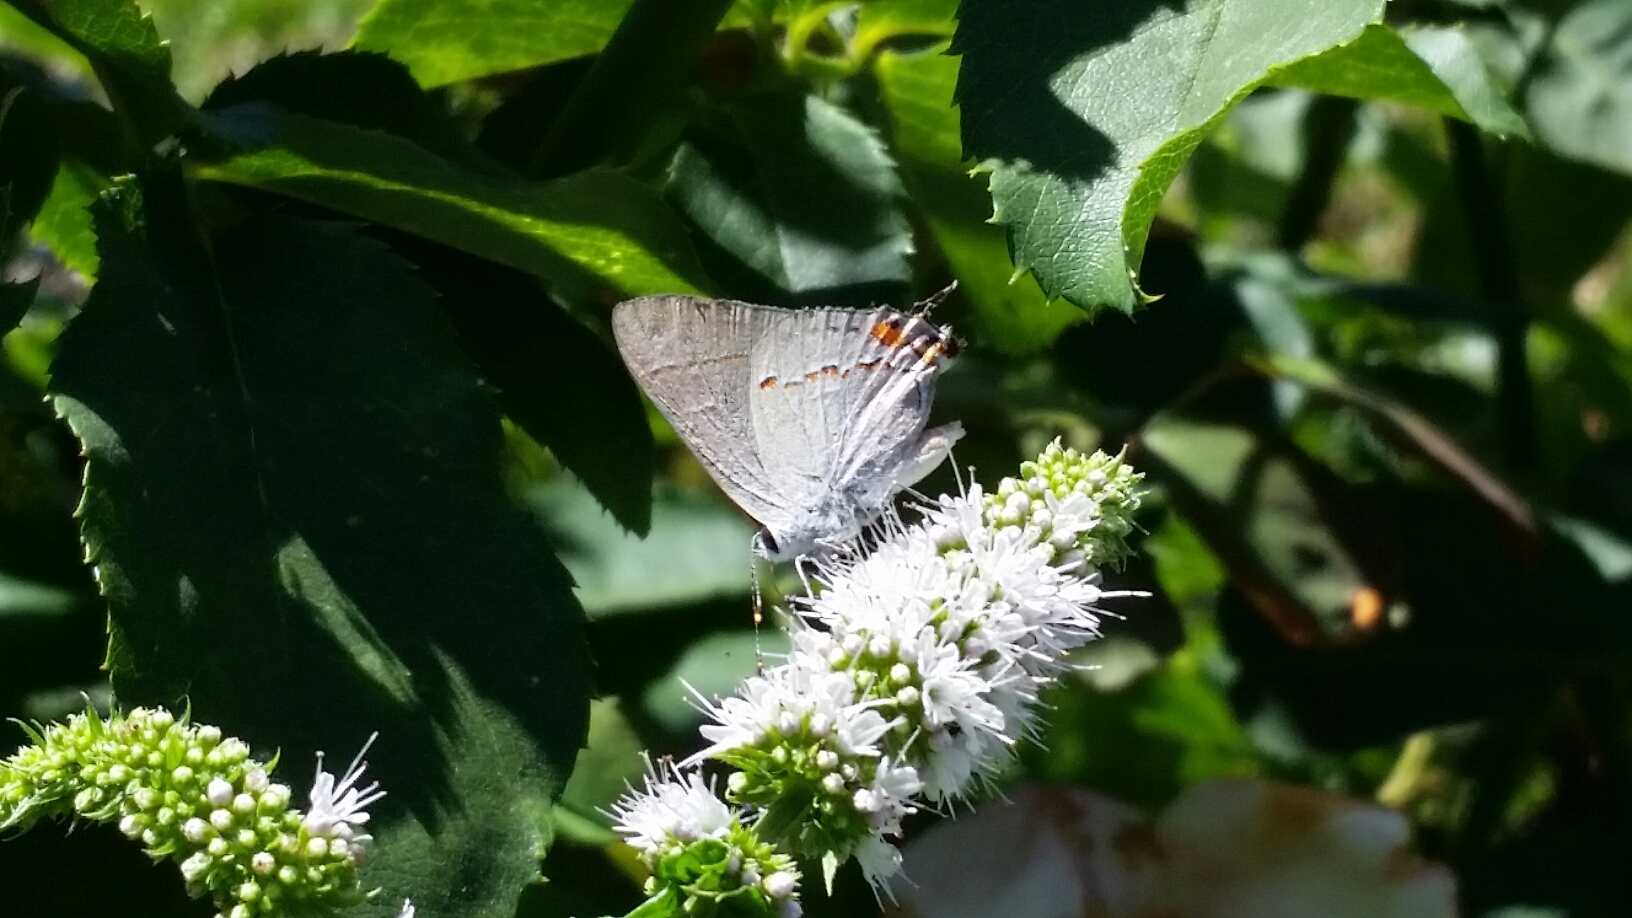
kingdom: Animalia
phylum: Arthropoda
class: Insecta
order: Lepidoptera
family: Lycaenidae
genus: Strymon
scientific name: Strymon melinus
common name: Gray hairstreak
